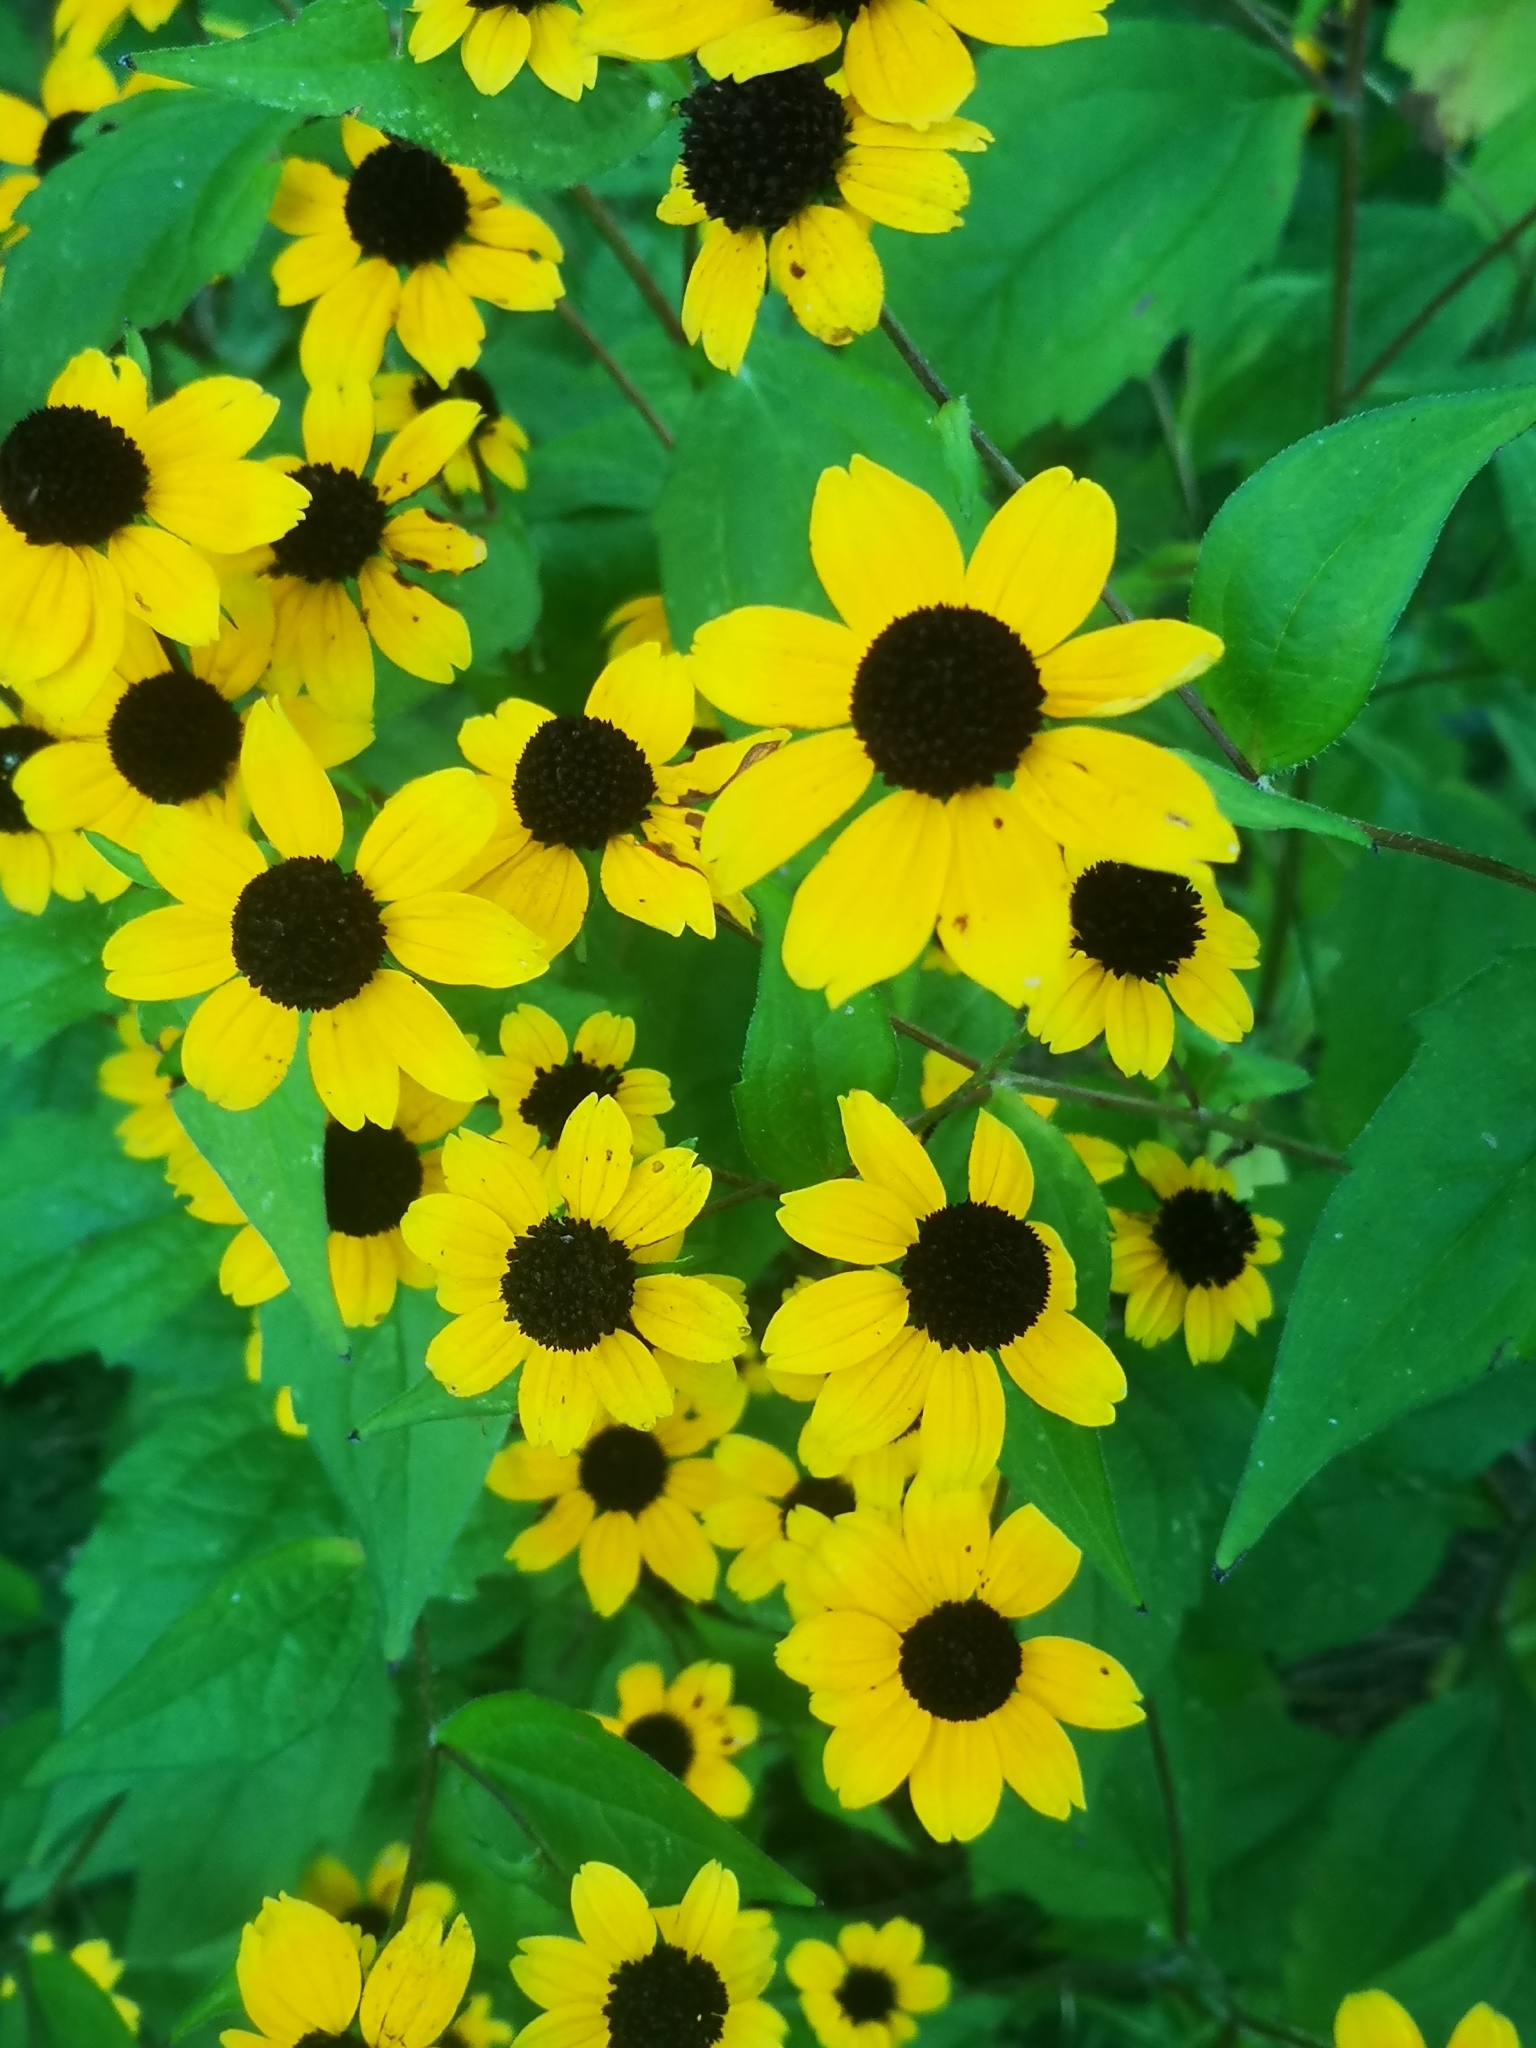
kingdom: Plantae
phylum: Tracheophyta
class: Magnoliopsida
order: Asterales
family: Asteraceae
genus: Rudbeckia
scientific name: Rudbeckia triloba
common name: Thin-leaved coneflower
